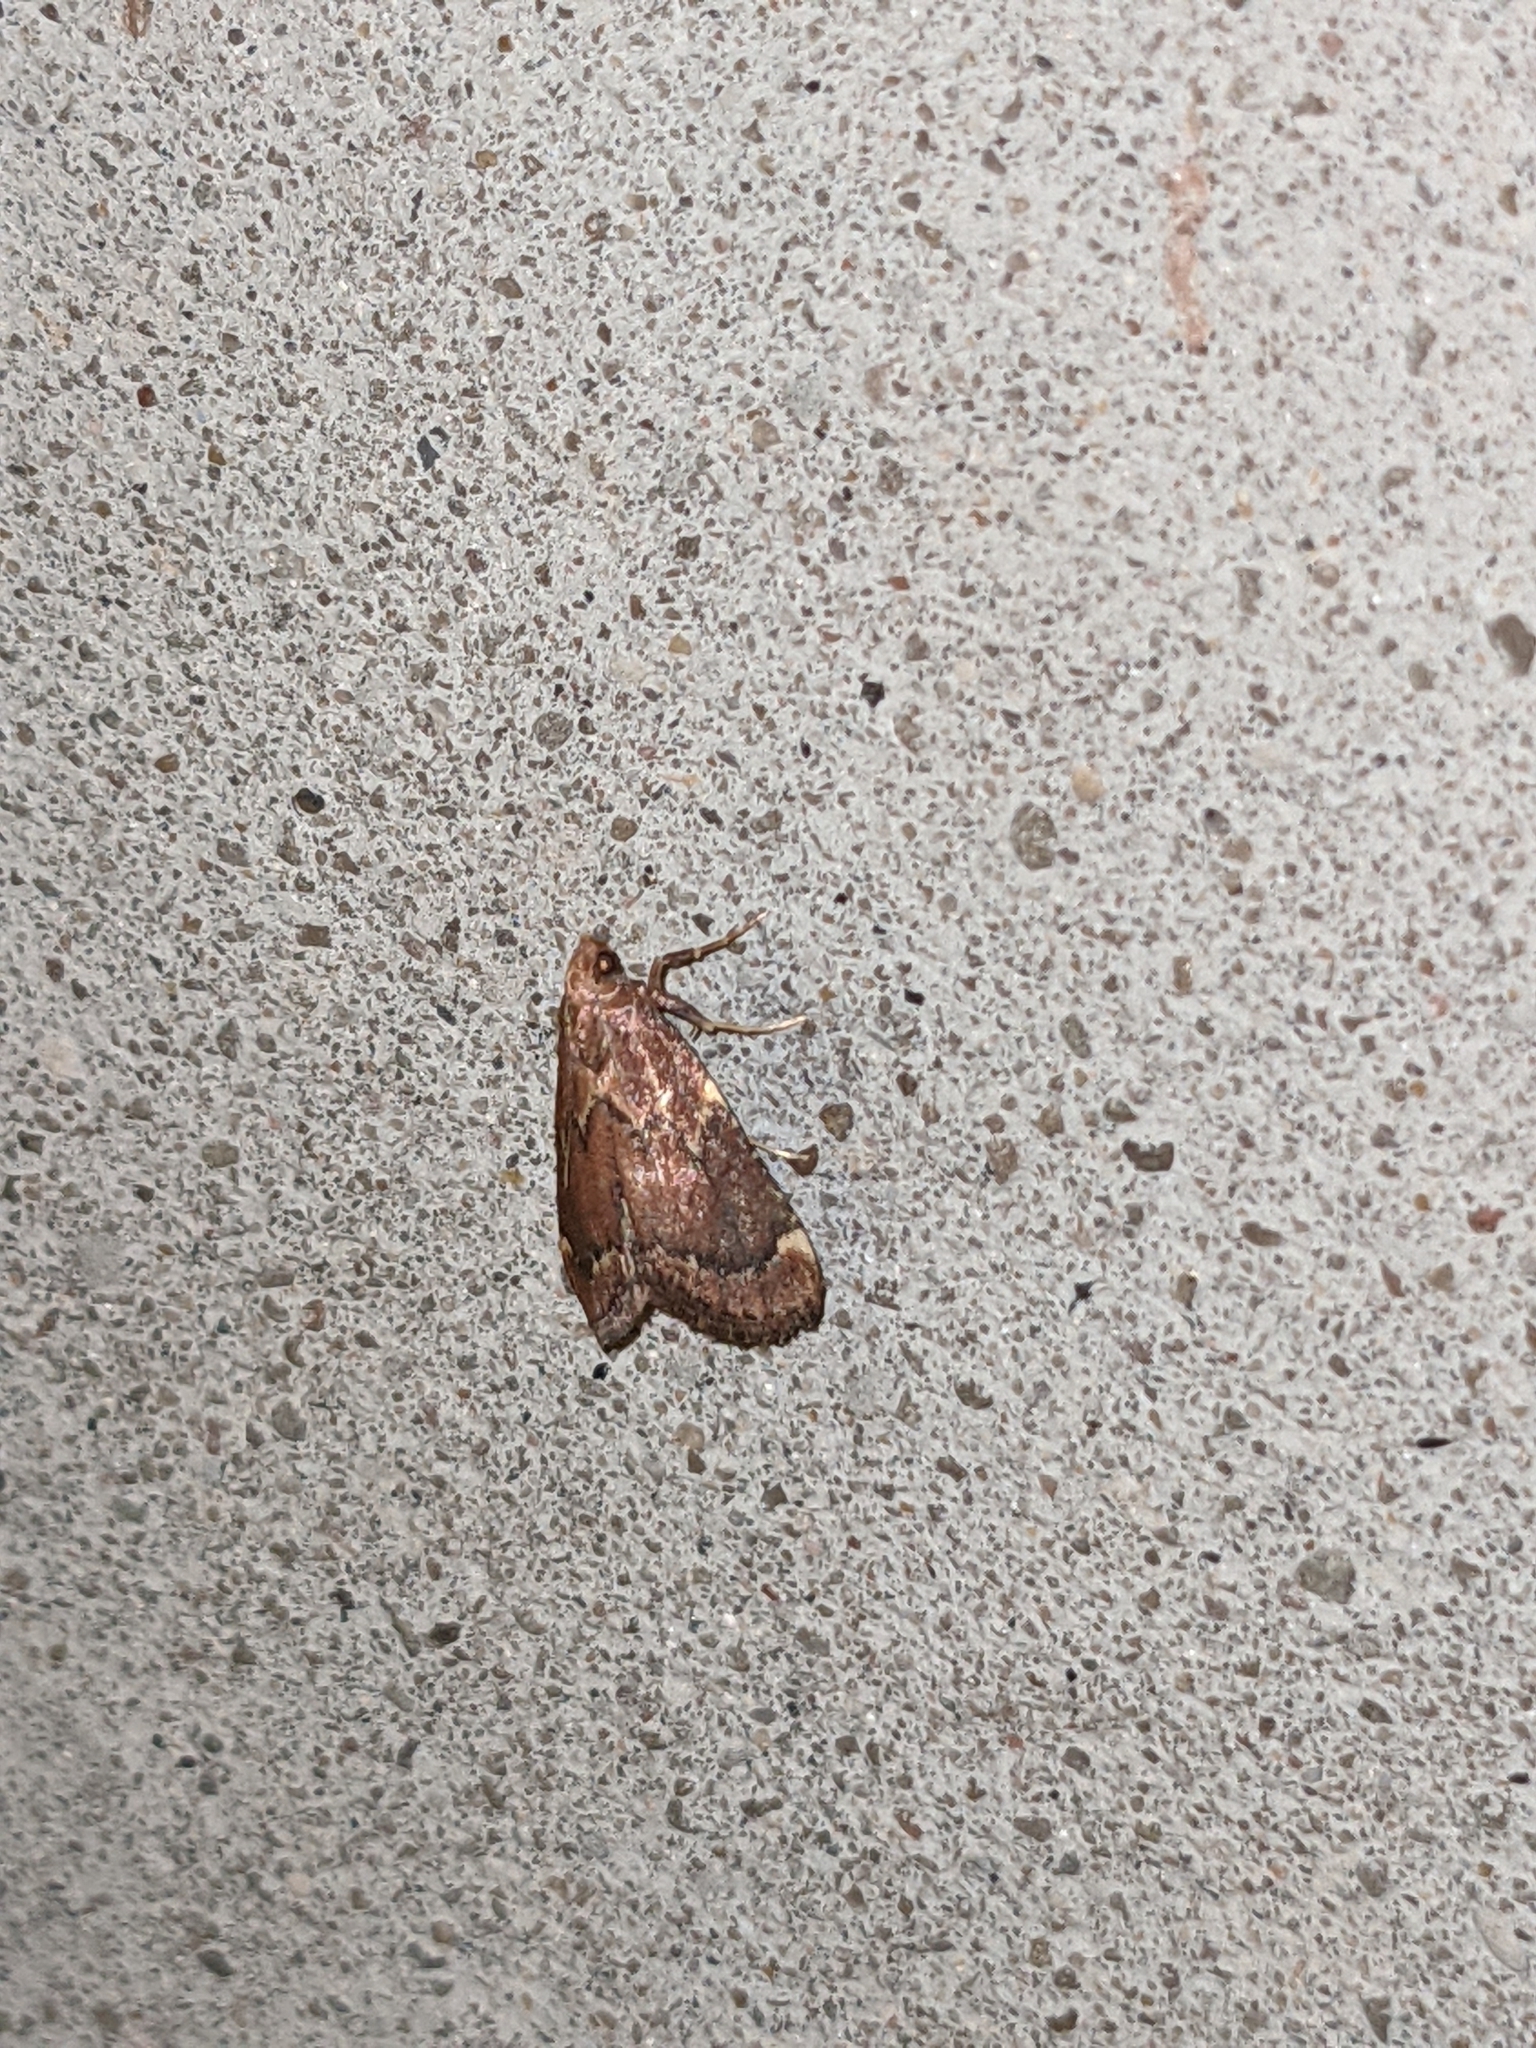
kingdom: Animalia
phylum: Arthropoda
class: Insecta
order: Lepidoptera
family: Pyralidae
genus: Hypsopygia
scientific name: Hypsopygia intermedialis
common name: Red-shawled moth
